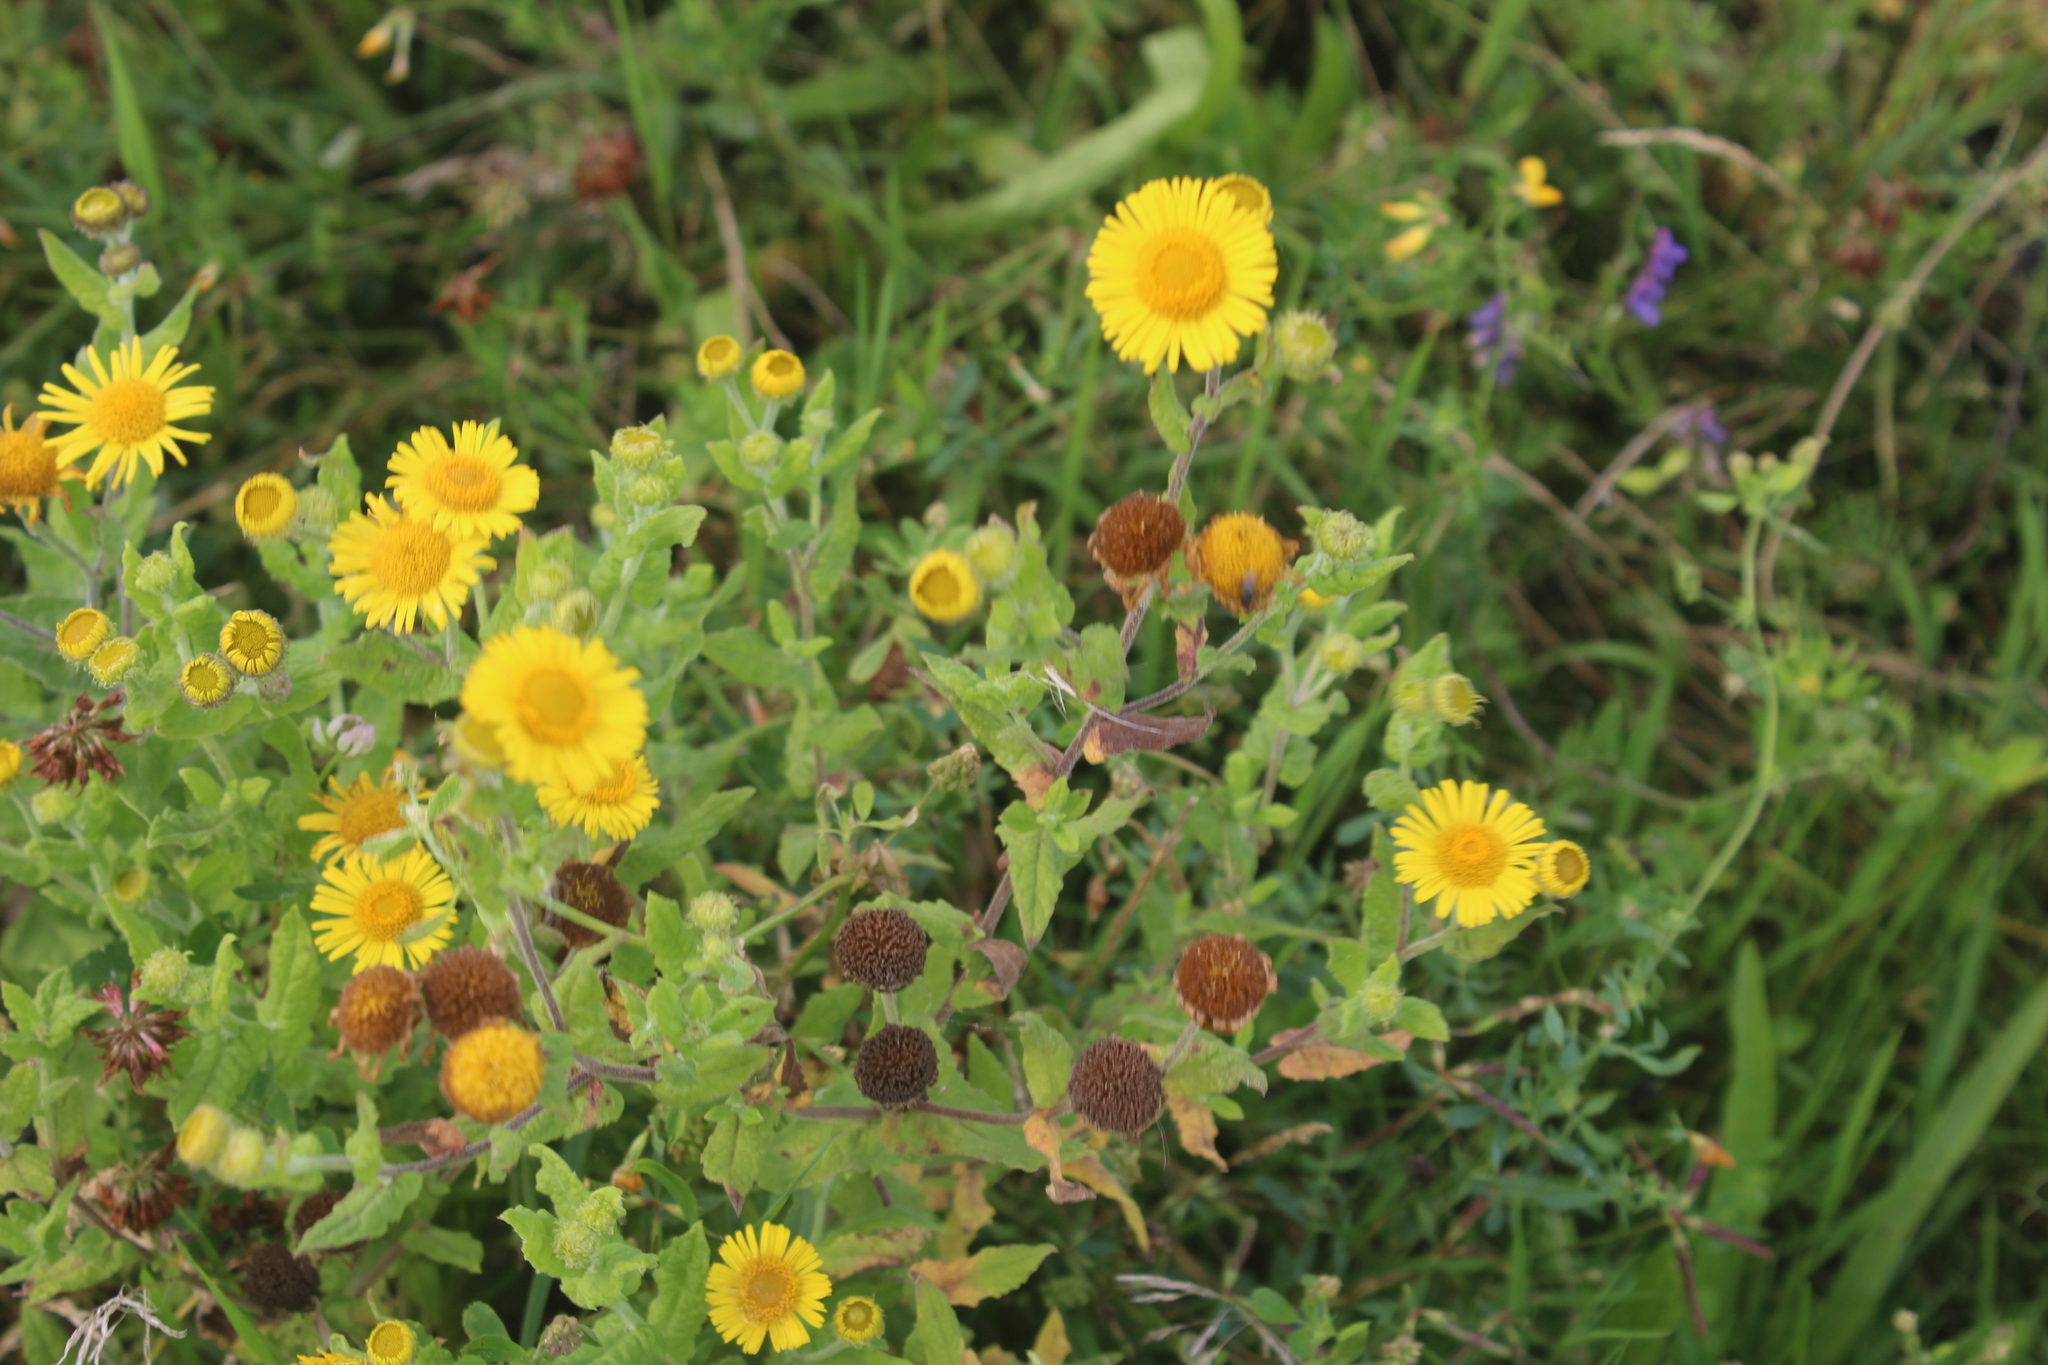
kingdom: Plantae
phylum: Tracheophyta
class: Magnoliopsida
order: Asterales
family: Asteraceae
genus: Pulicaria
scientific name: Pulicaria dysenterica
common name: Common fleabane
